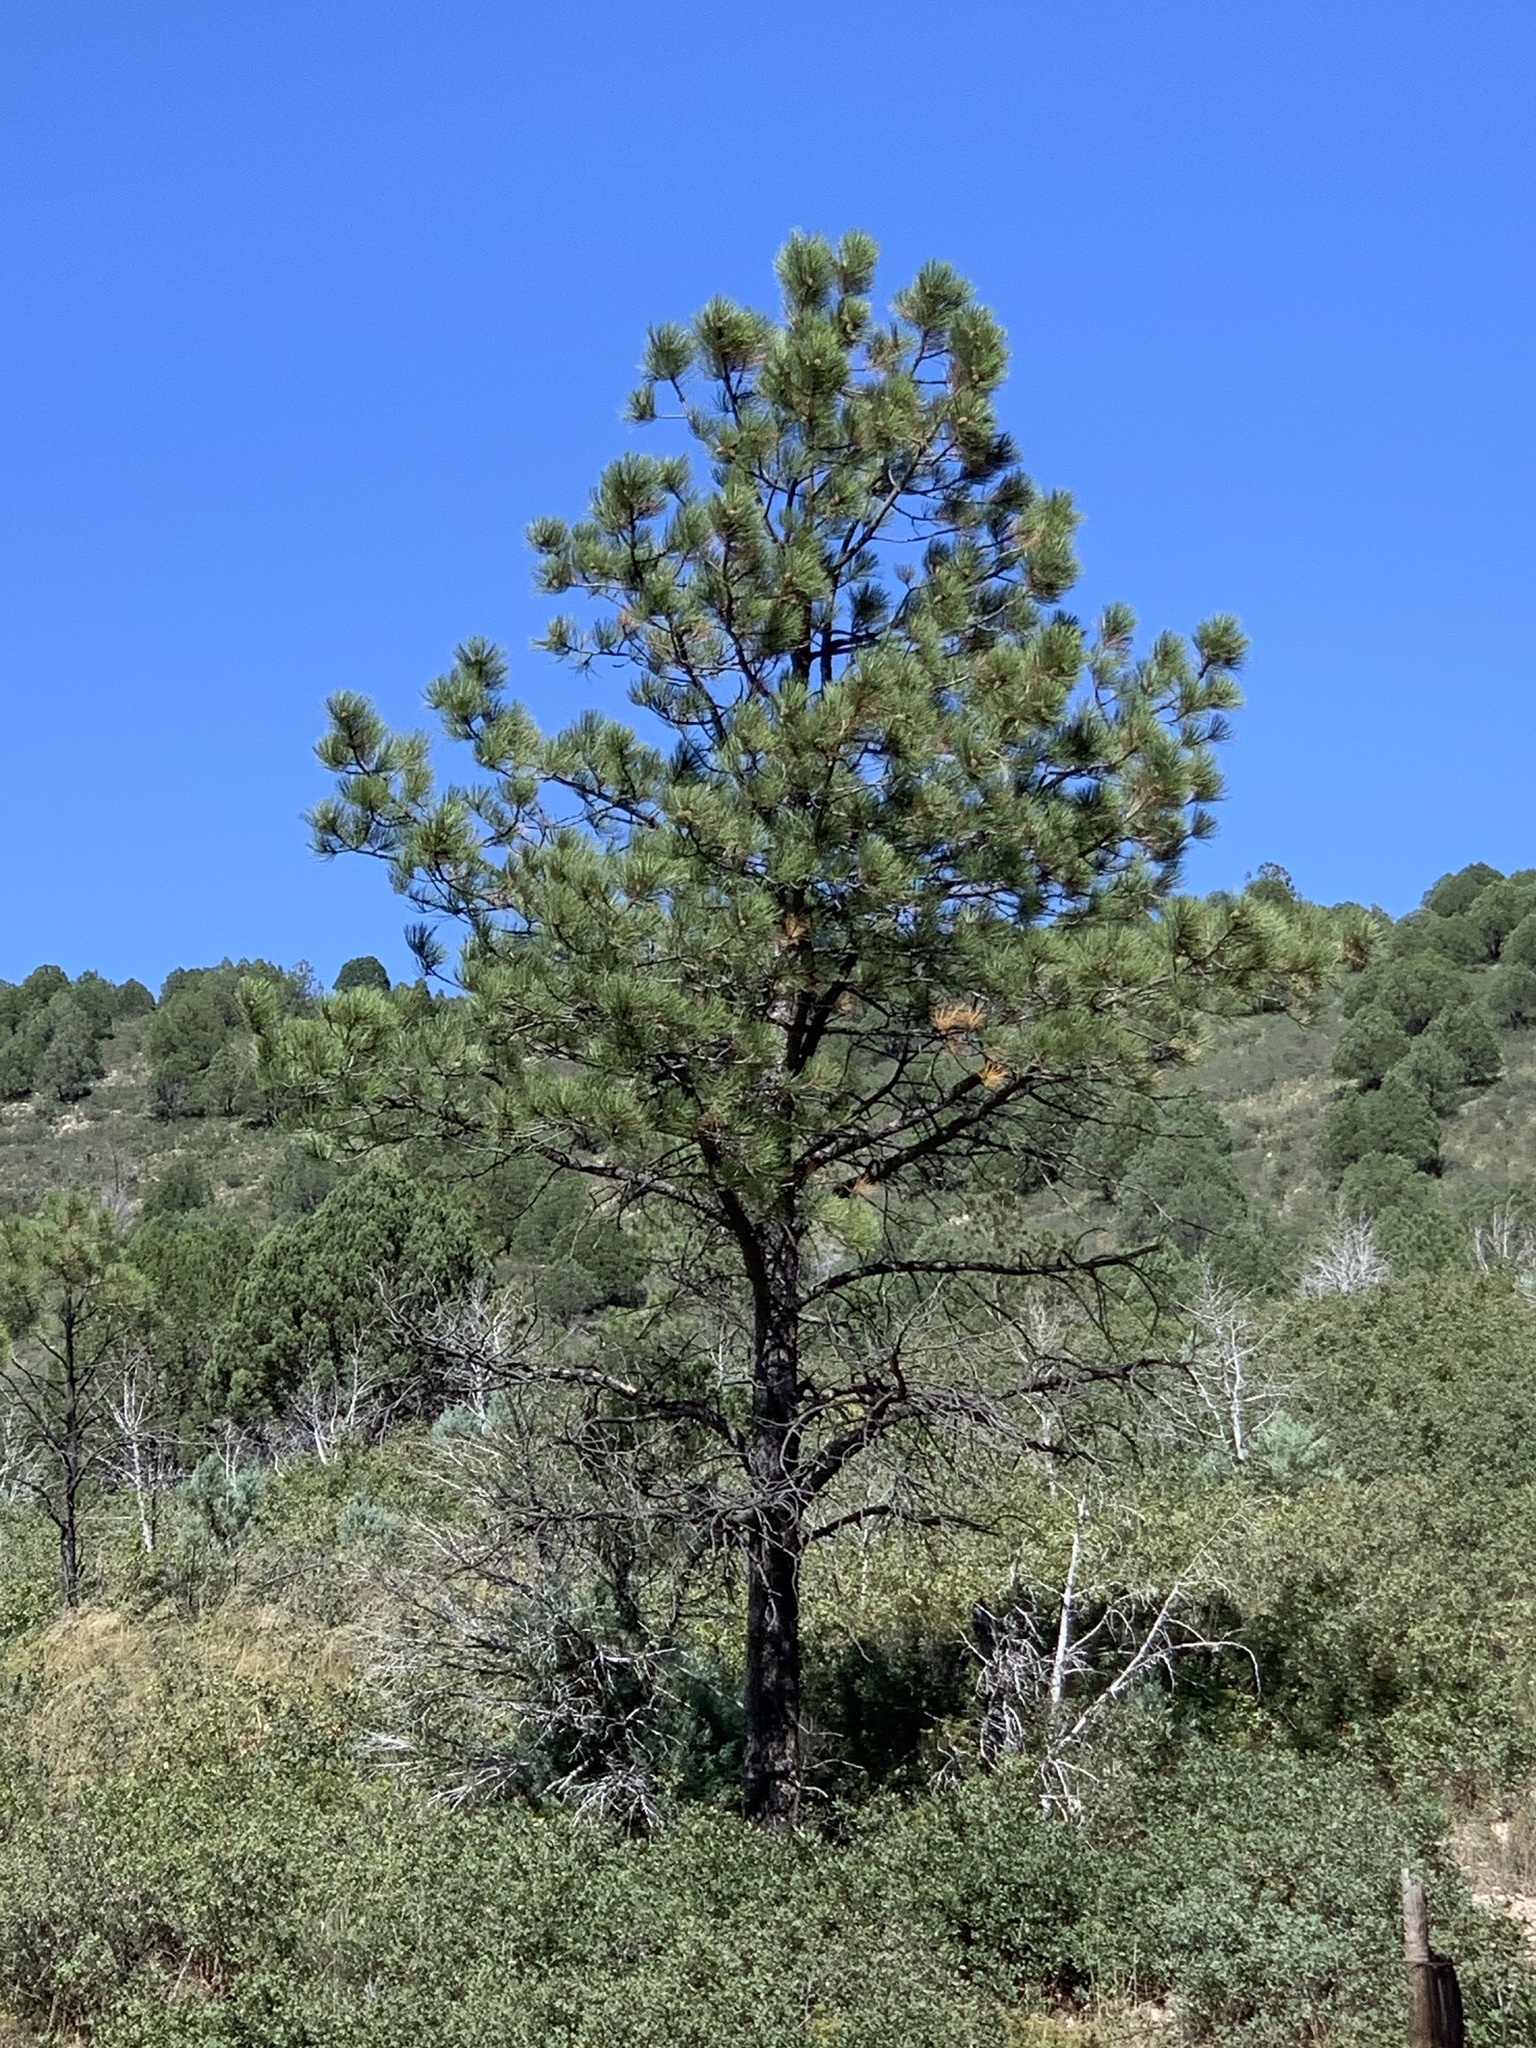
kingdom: Plantae
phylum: Tracheophyta
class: Pinopsida
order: Pinales
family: Pinaceae
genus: Pinus
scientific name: Pinus ponderosa
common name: Western yellow-pine
